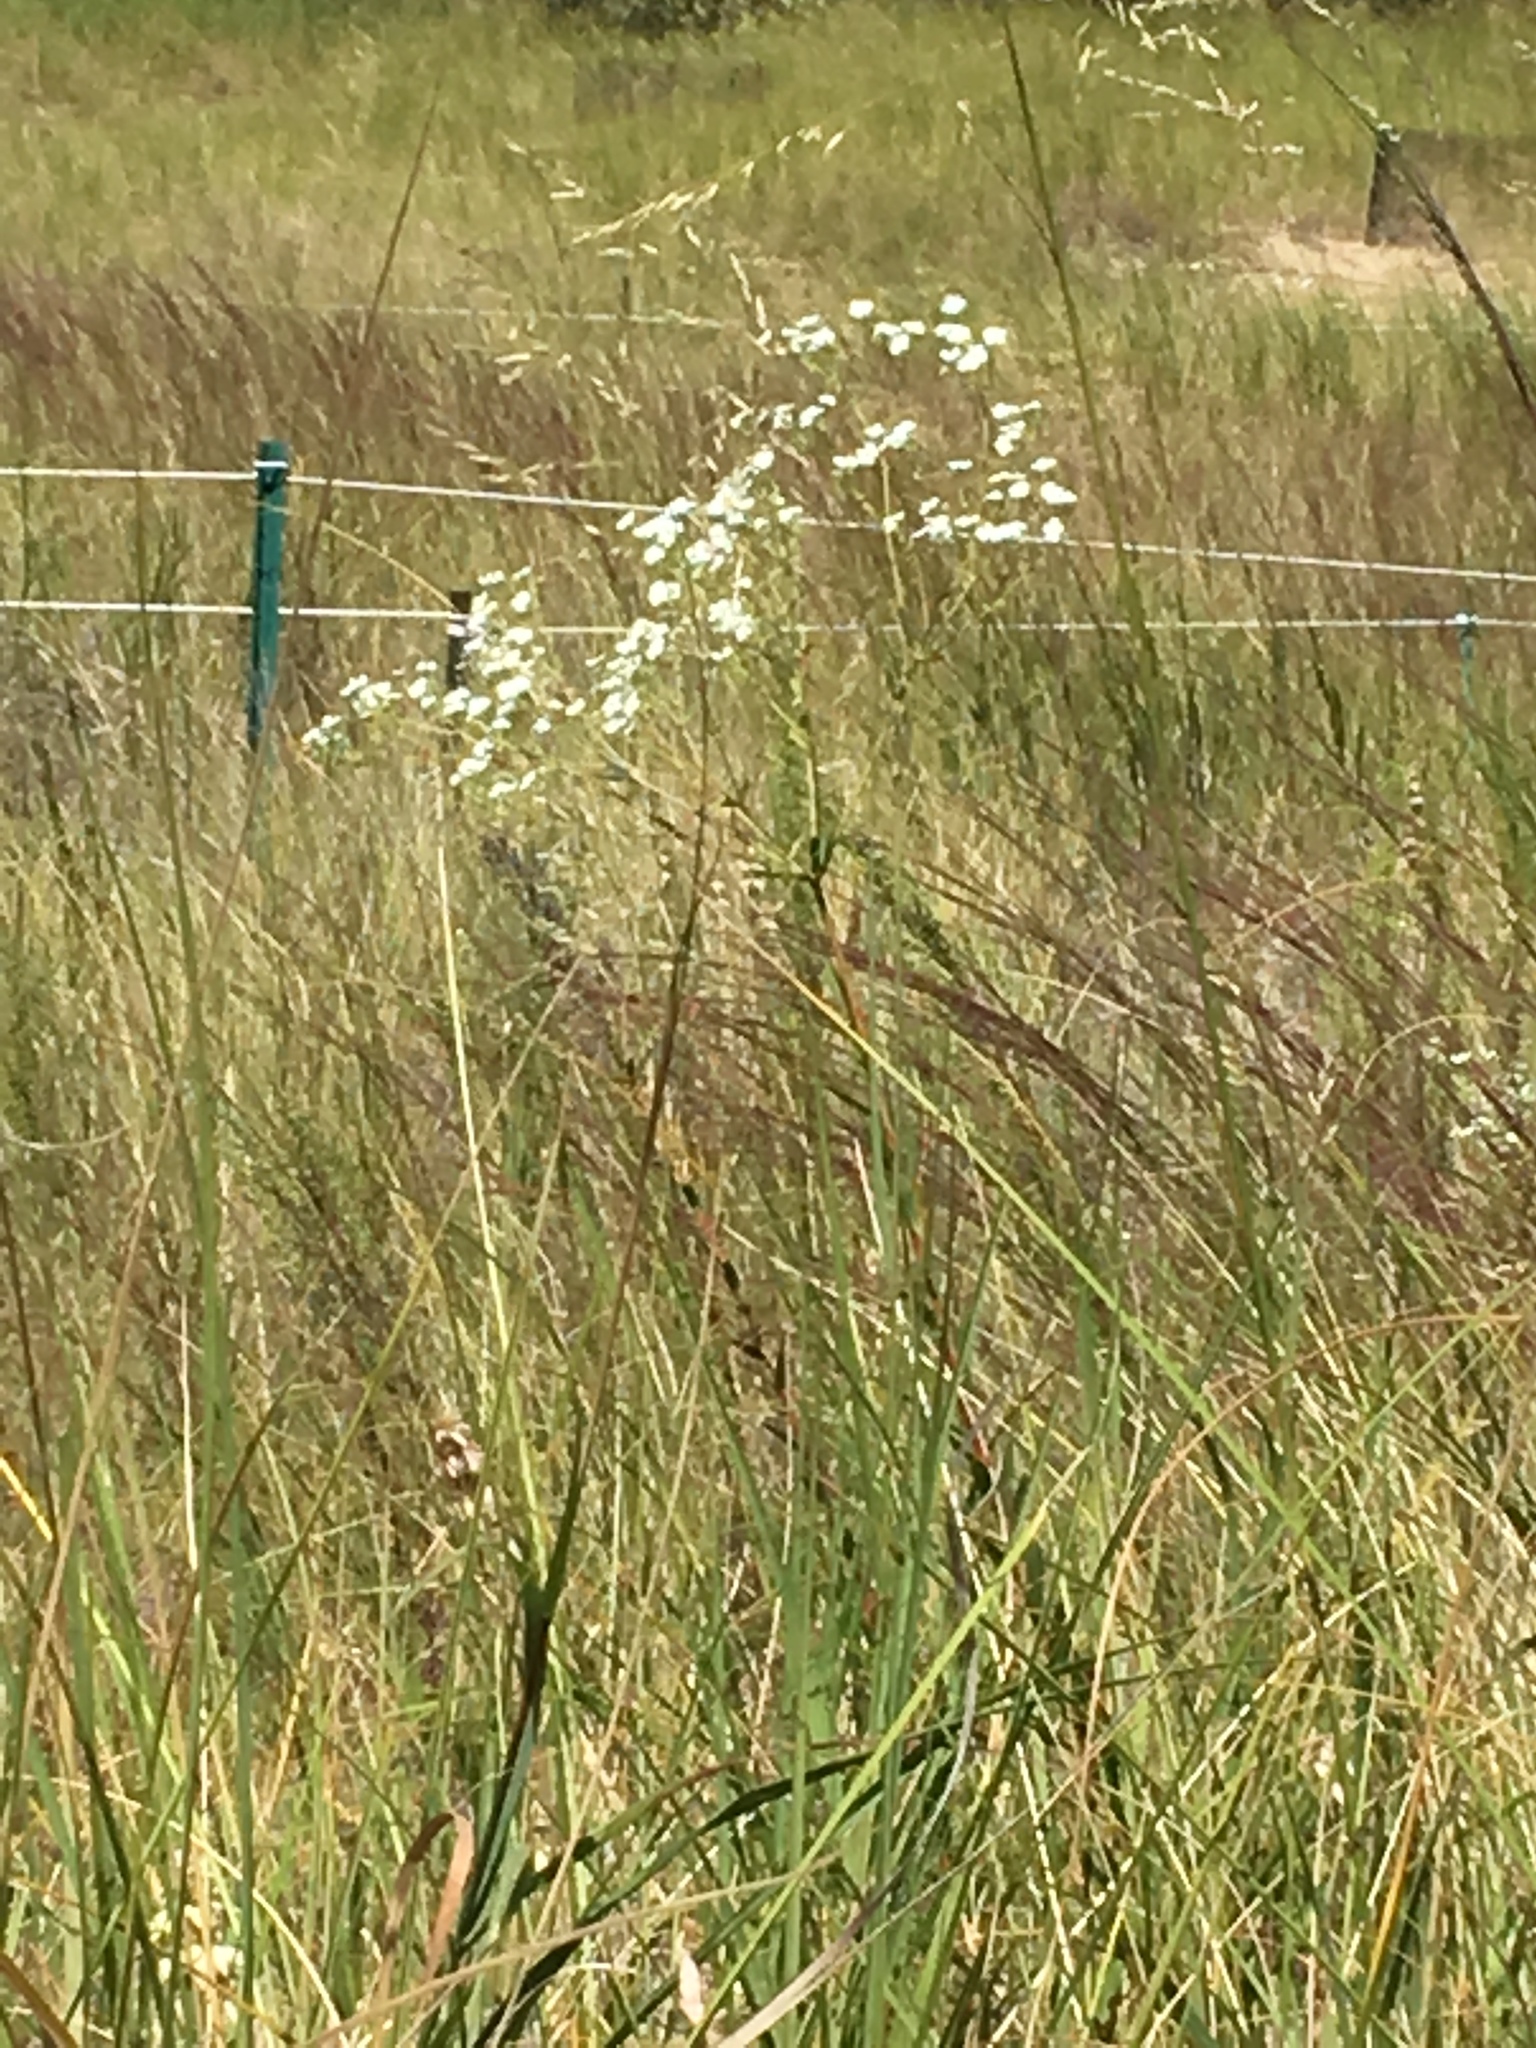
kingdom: Plantae
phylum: Tracheophyta
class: Magnoliopsida
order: Malpighiales
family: Euphorbiaceae
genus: Euphorbia
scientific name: Euphorbia corollata
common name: Flowering spurge
